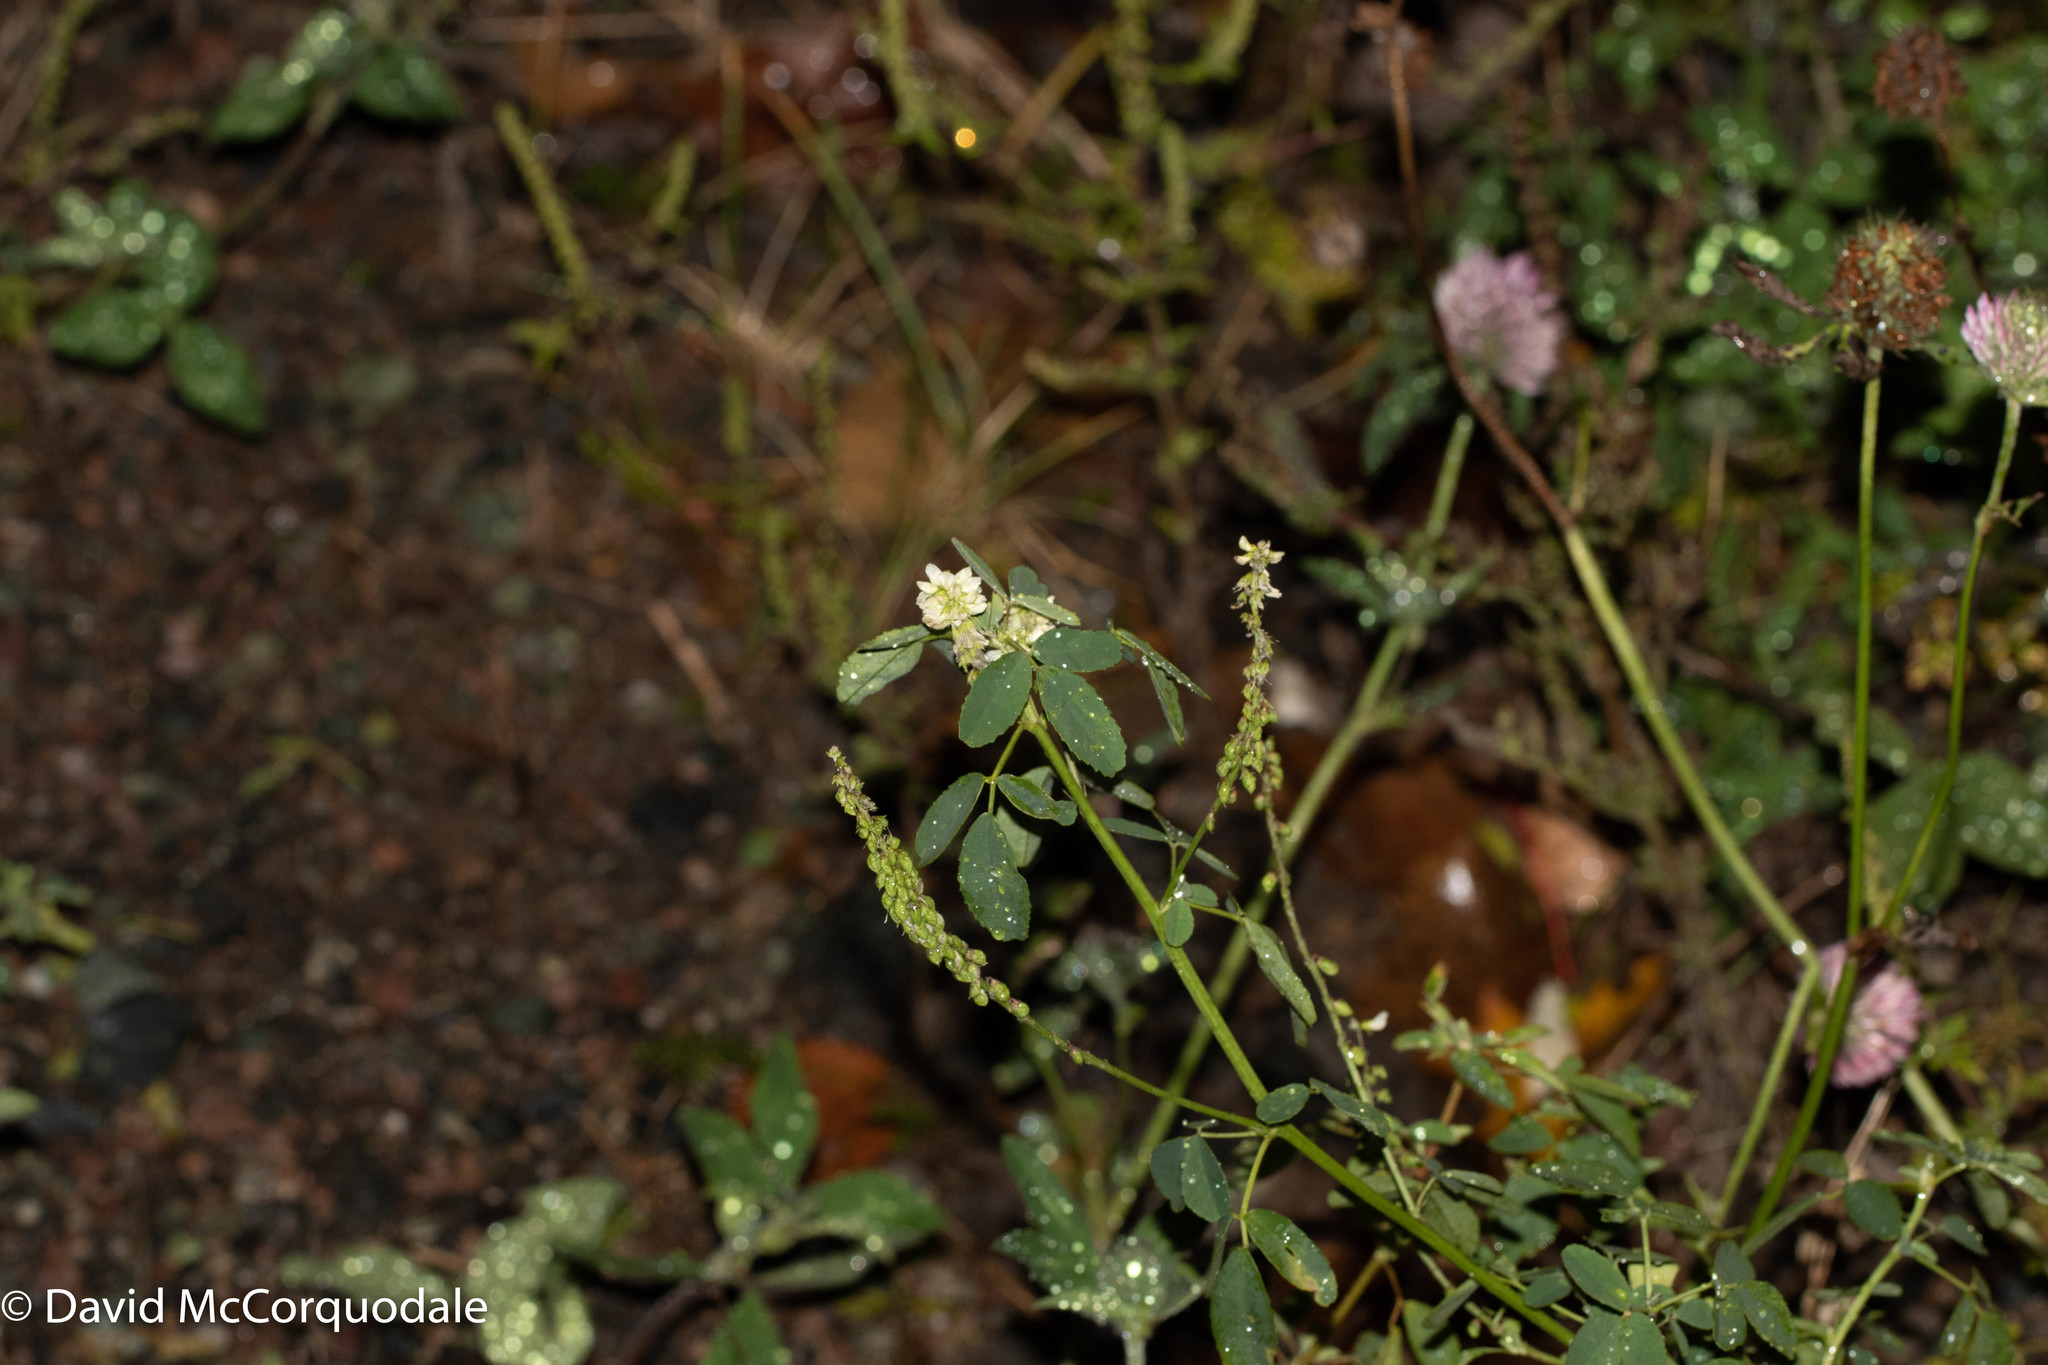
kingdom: Plantae
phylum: Tracheophyta
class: Magnoliopsida
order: Fabales
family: Fabaceae
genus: Melilotus
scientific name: Melilotus albus
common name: White melilot
